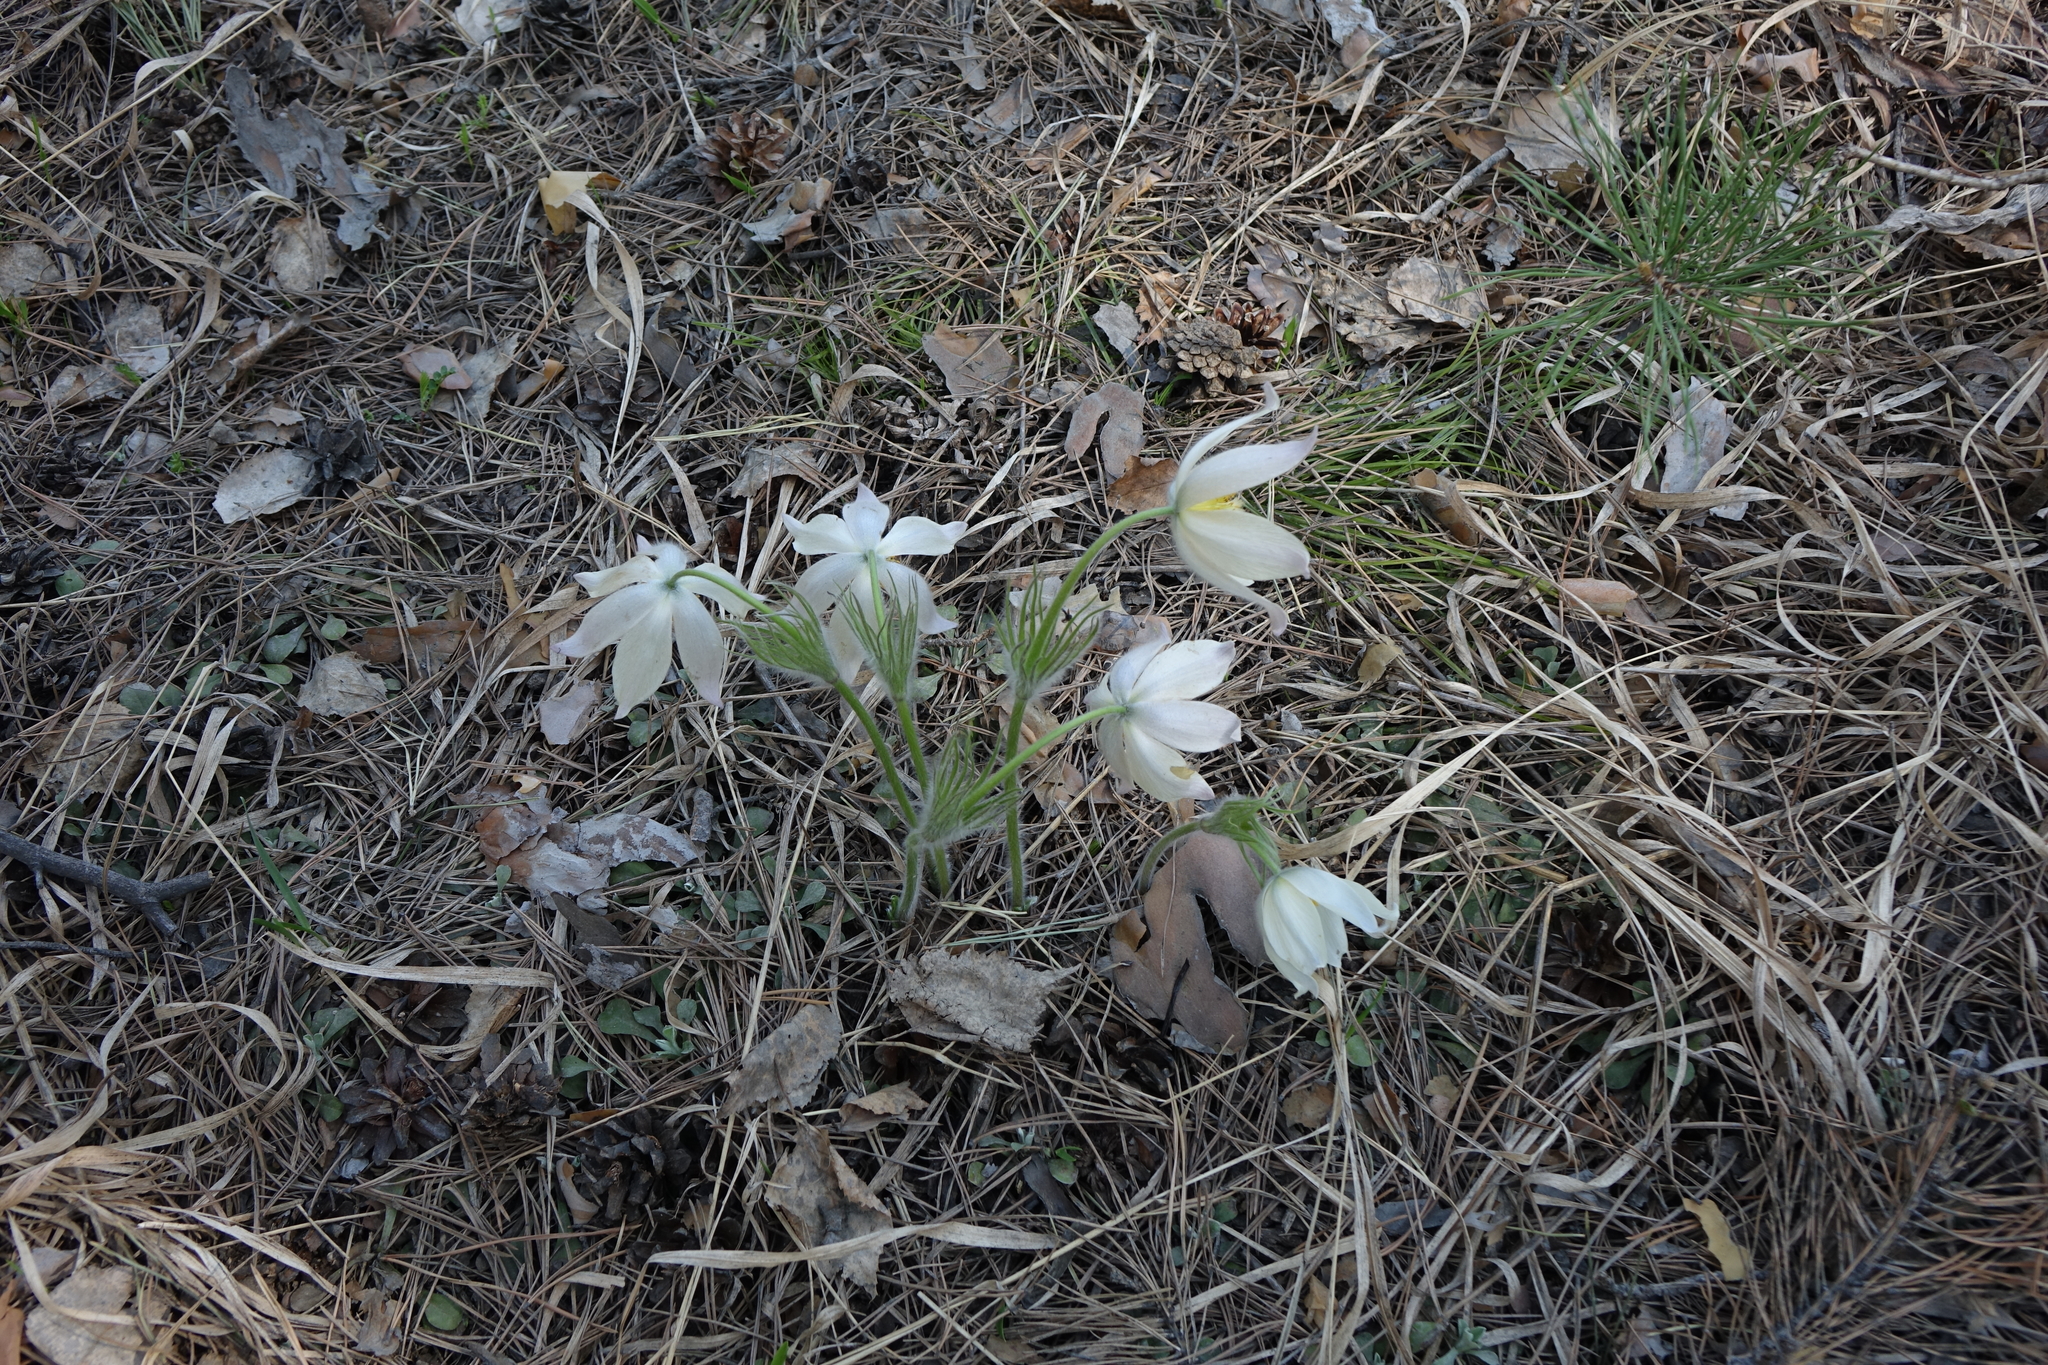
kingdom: Plantae
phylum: Tracheophyta
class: Magnoliopsida
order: Ranunculales
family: Ranunculaceae
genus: Pulsatilla
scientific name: Pulsatilla patens
